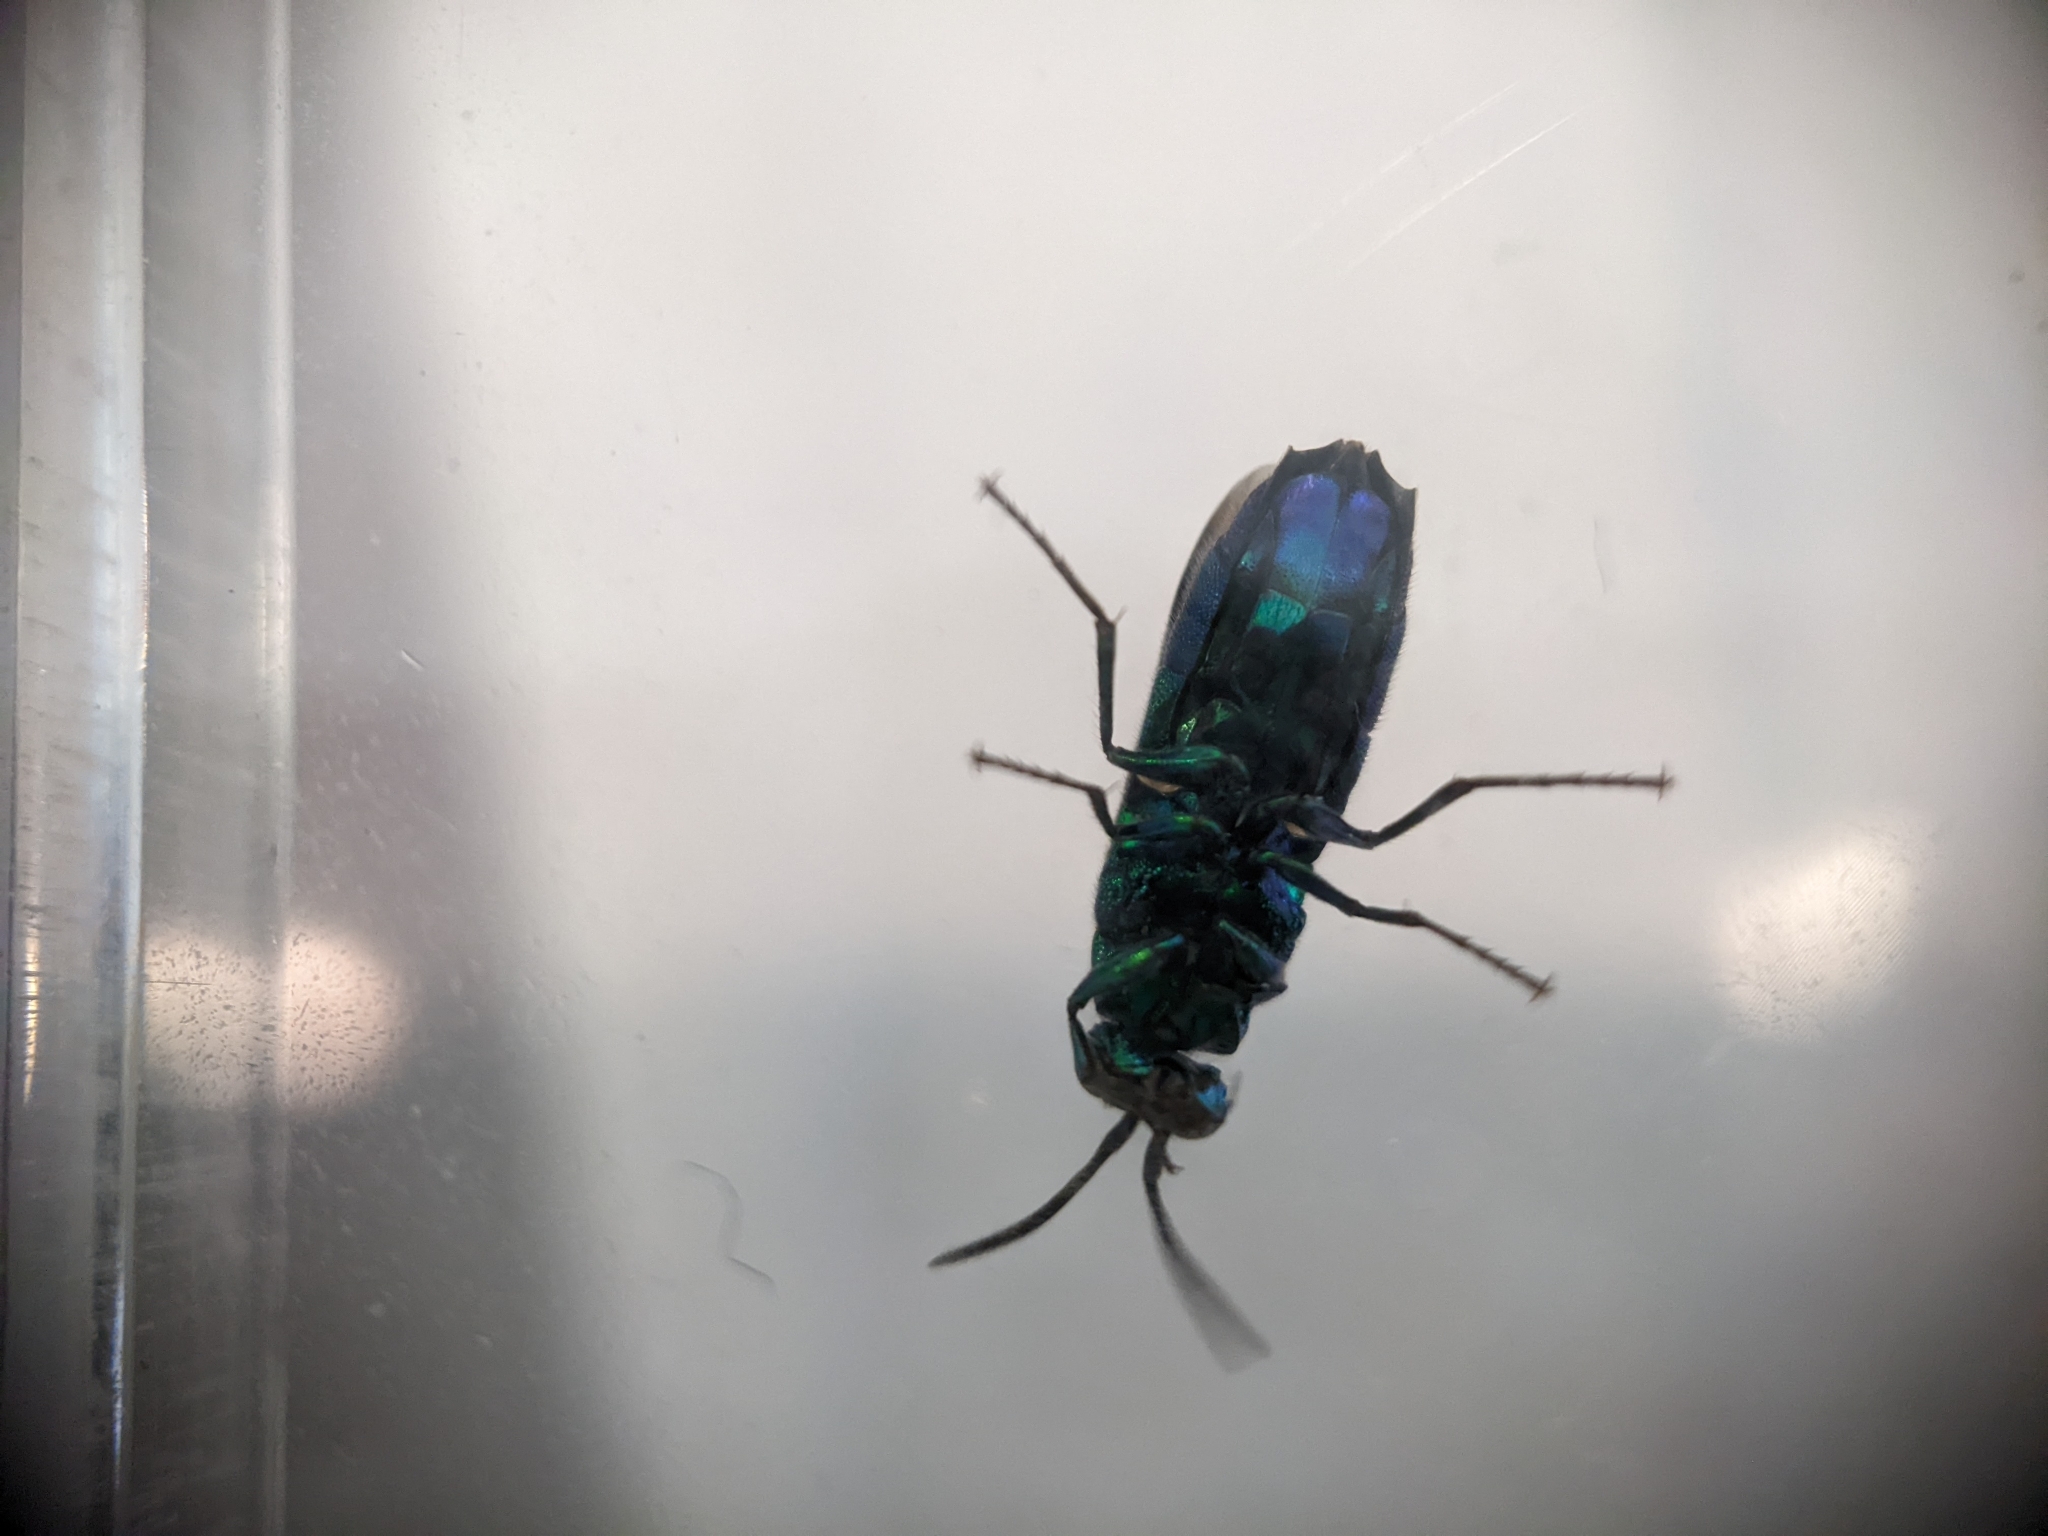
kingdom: Animalia
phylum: Arthropoda
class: Insecta
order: Hymenoptera
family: Chrysididae
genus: Chrysis
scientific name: Chrysis angolensis
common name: Cuckoo wasp
